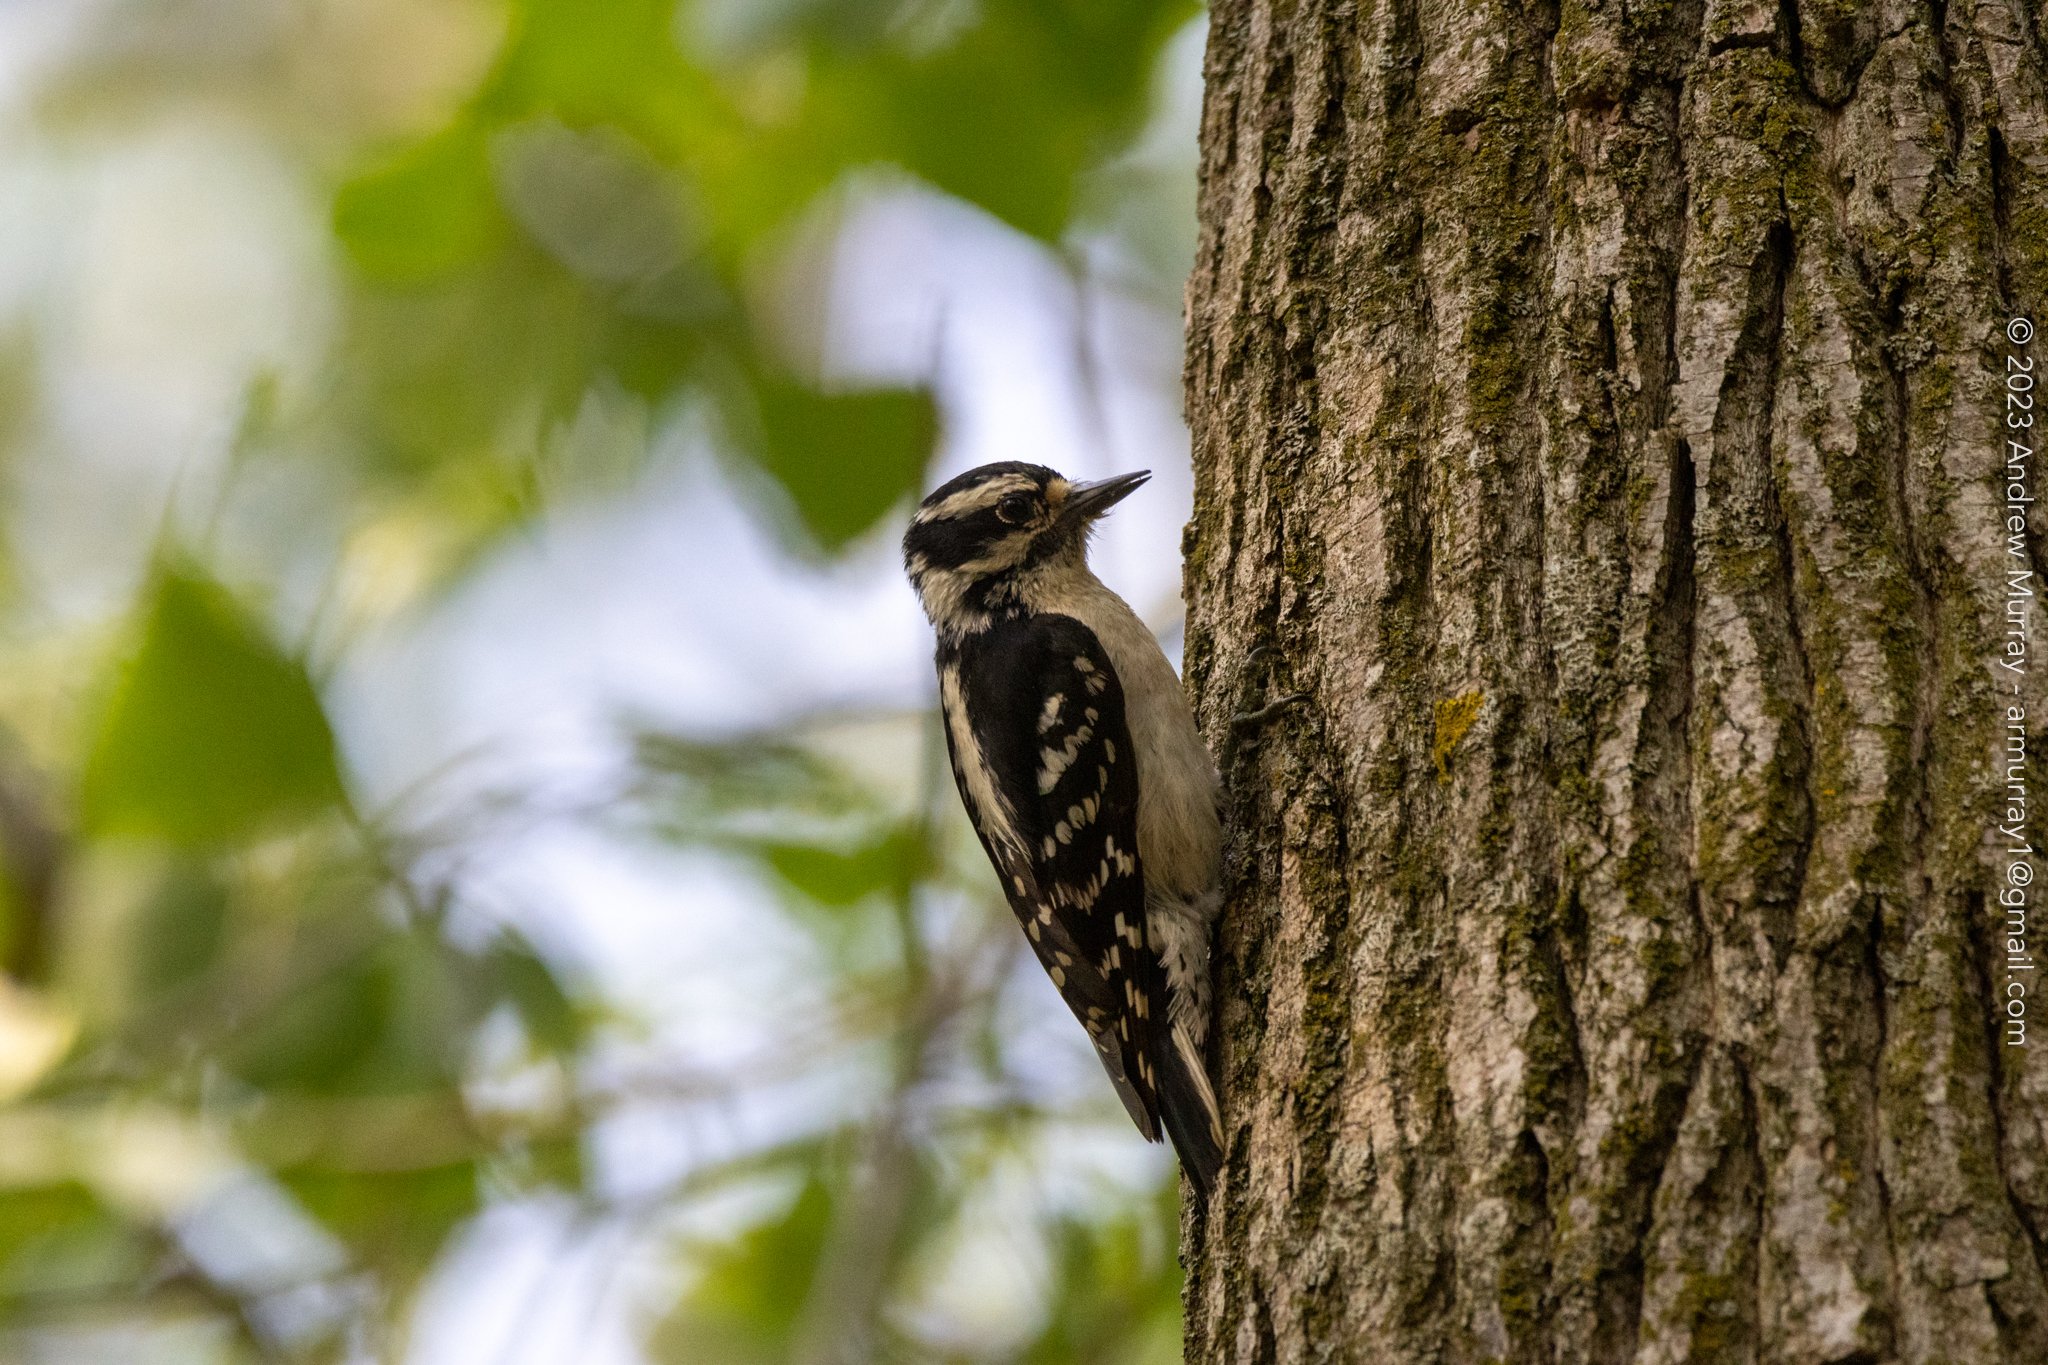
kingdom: Animalia
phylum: Chordata
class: Aves
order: Piciformes
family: Picidae
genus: Dryobates
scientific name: Dryobates pubescens
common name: Downy woodpecker
